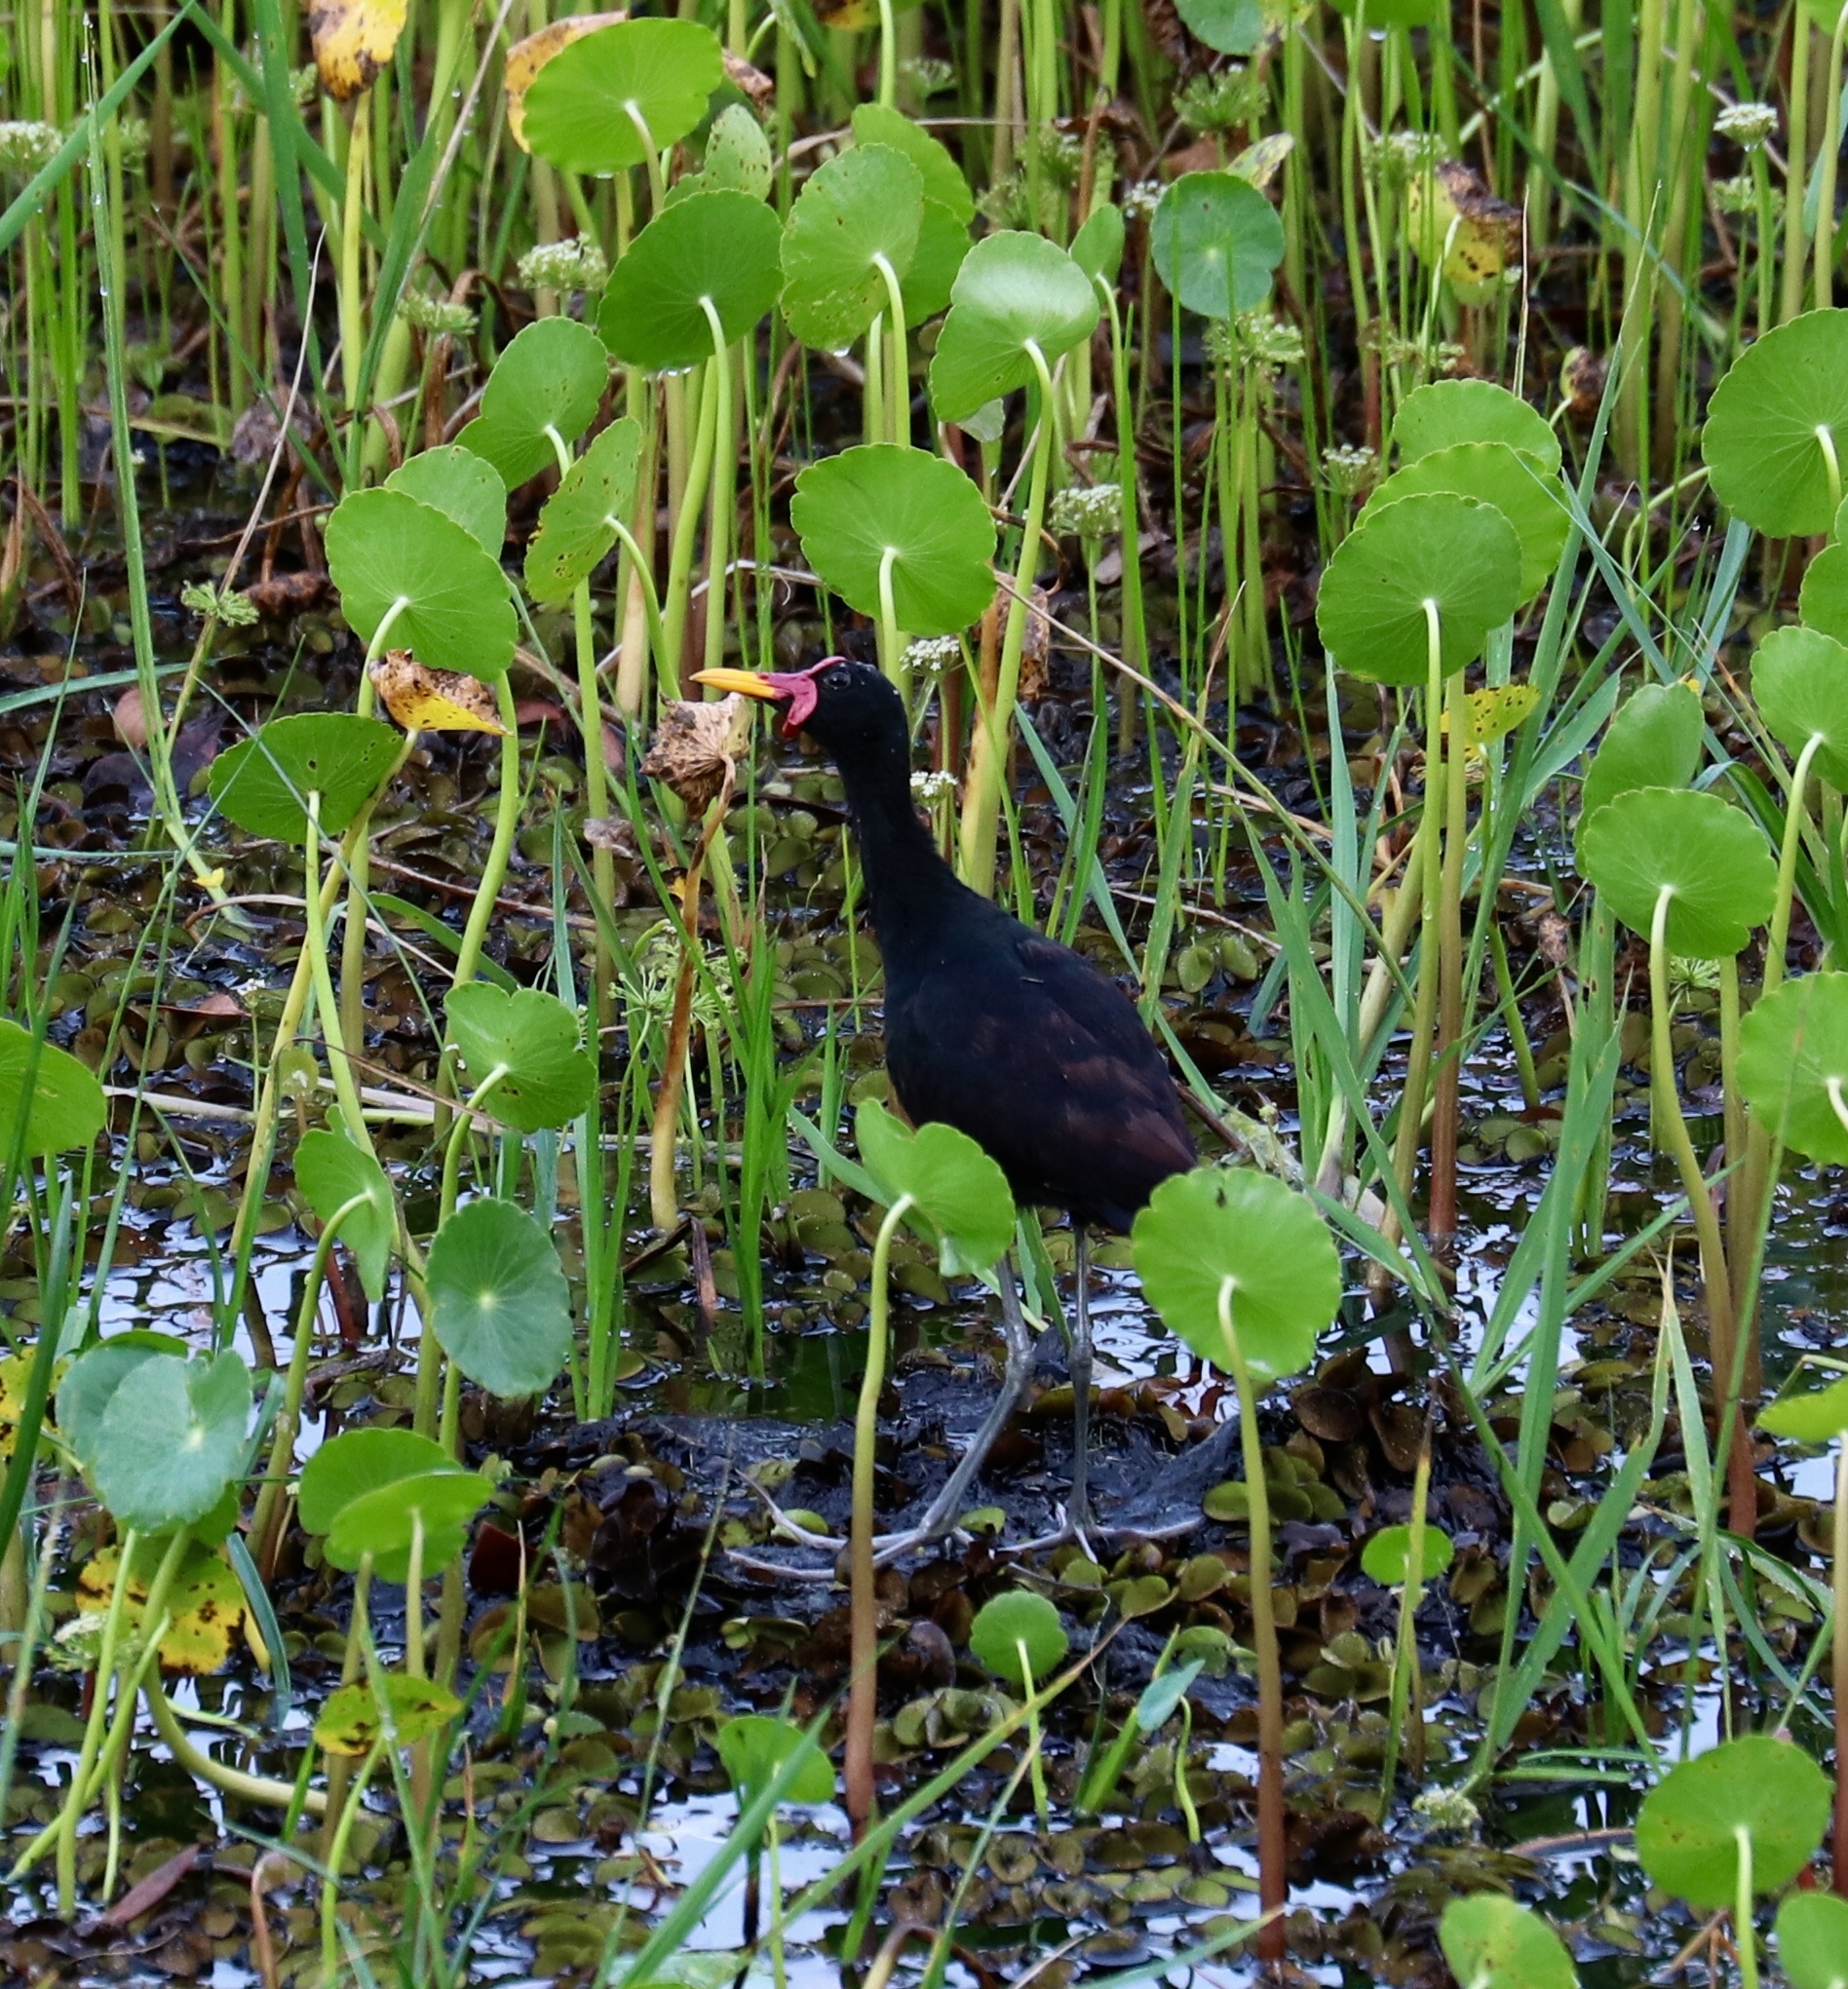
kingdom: Animalia
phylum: Chordata
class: Aves
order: Charadriiformes
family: Jacanidae
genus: Jacana
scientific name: Jacana jacana
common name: Wattled jacana
